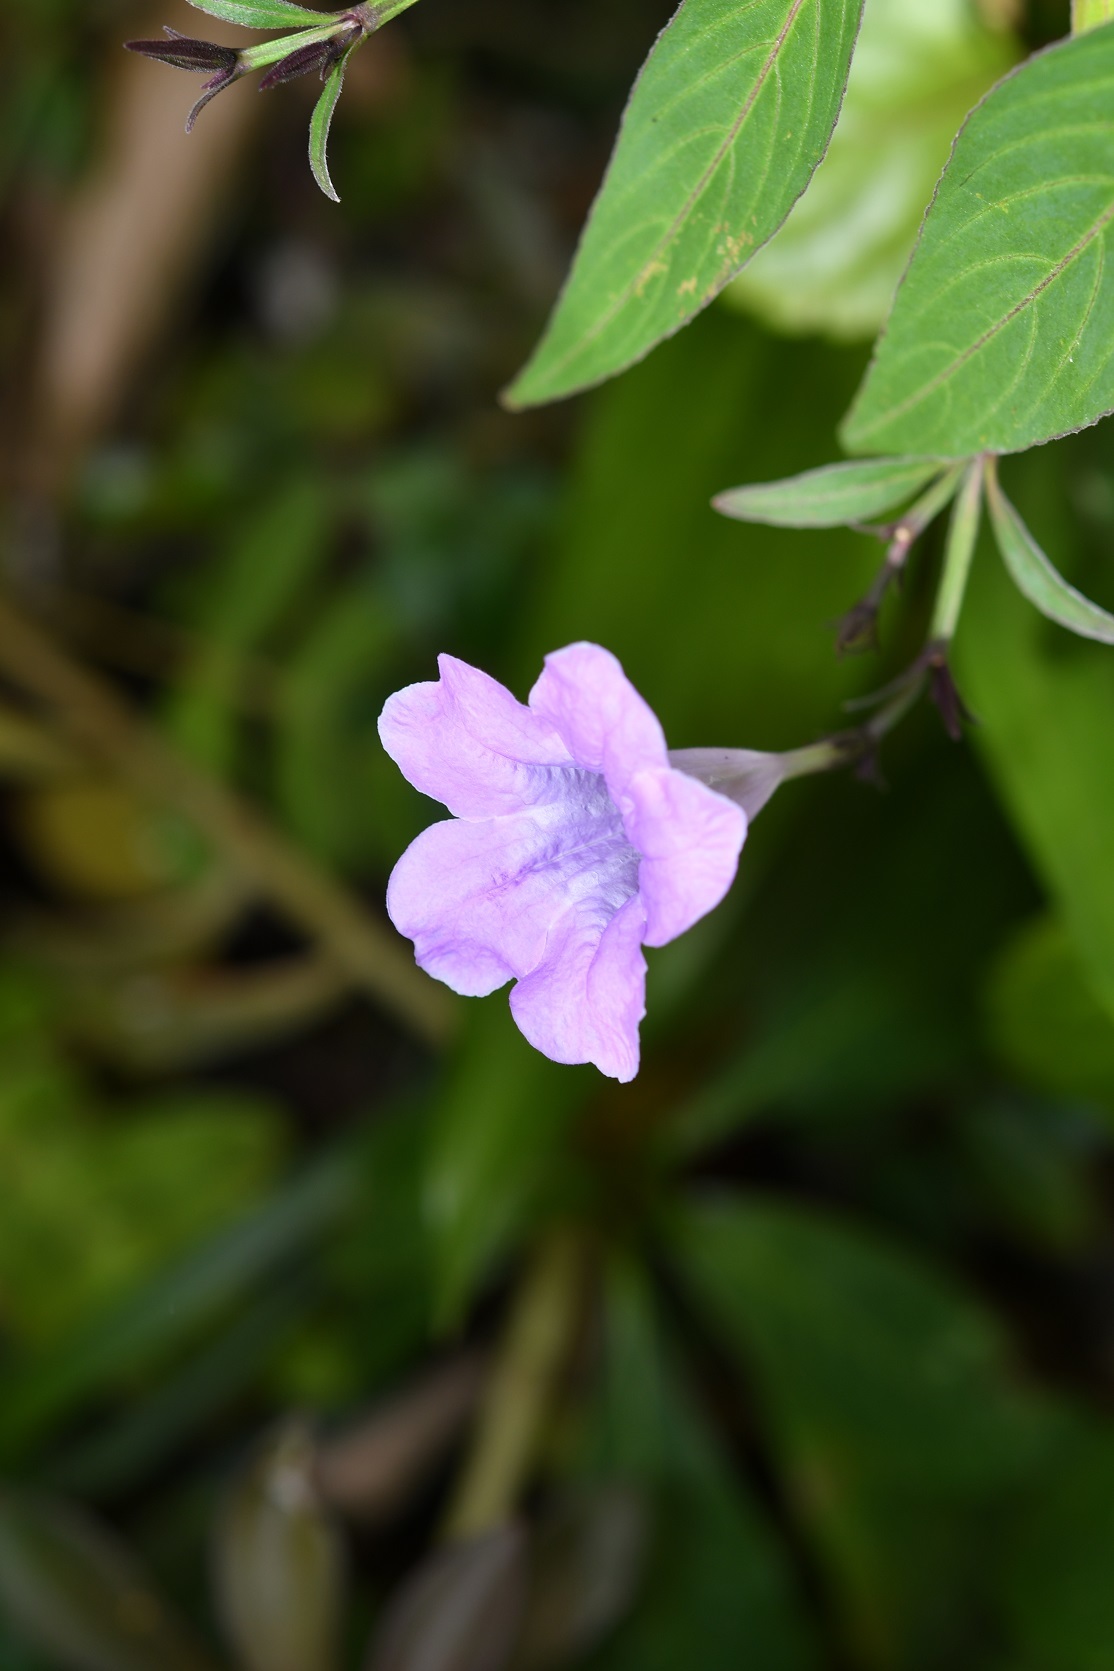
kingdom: Plantae
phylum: Tracheophyta
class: Magnoliopsida
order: Lamiales
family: Acanthaceae
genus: Ruellia
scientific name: Ruellia breedlovei
